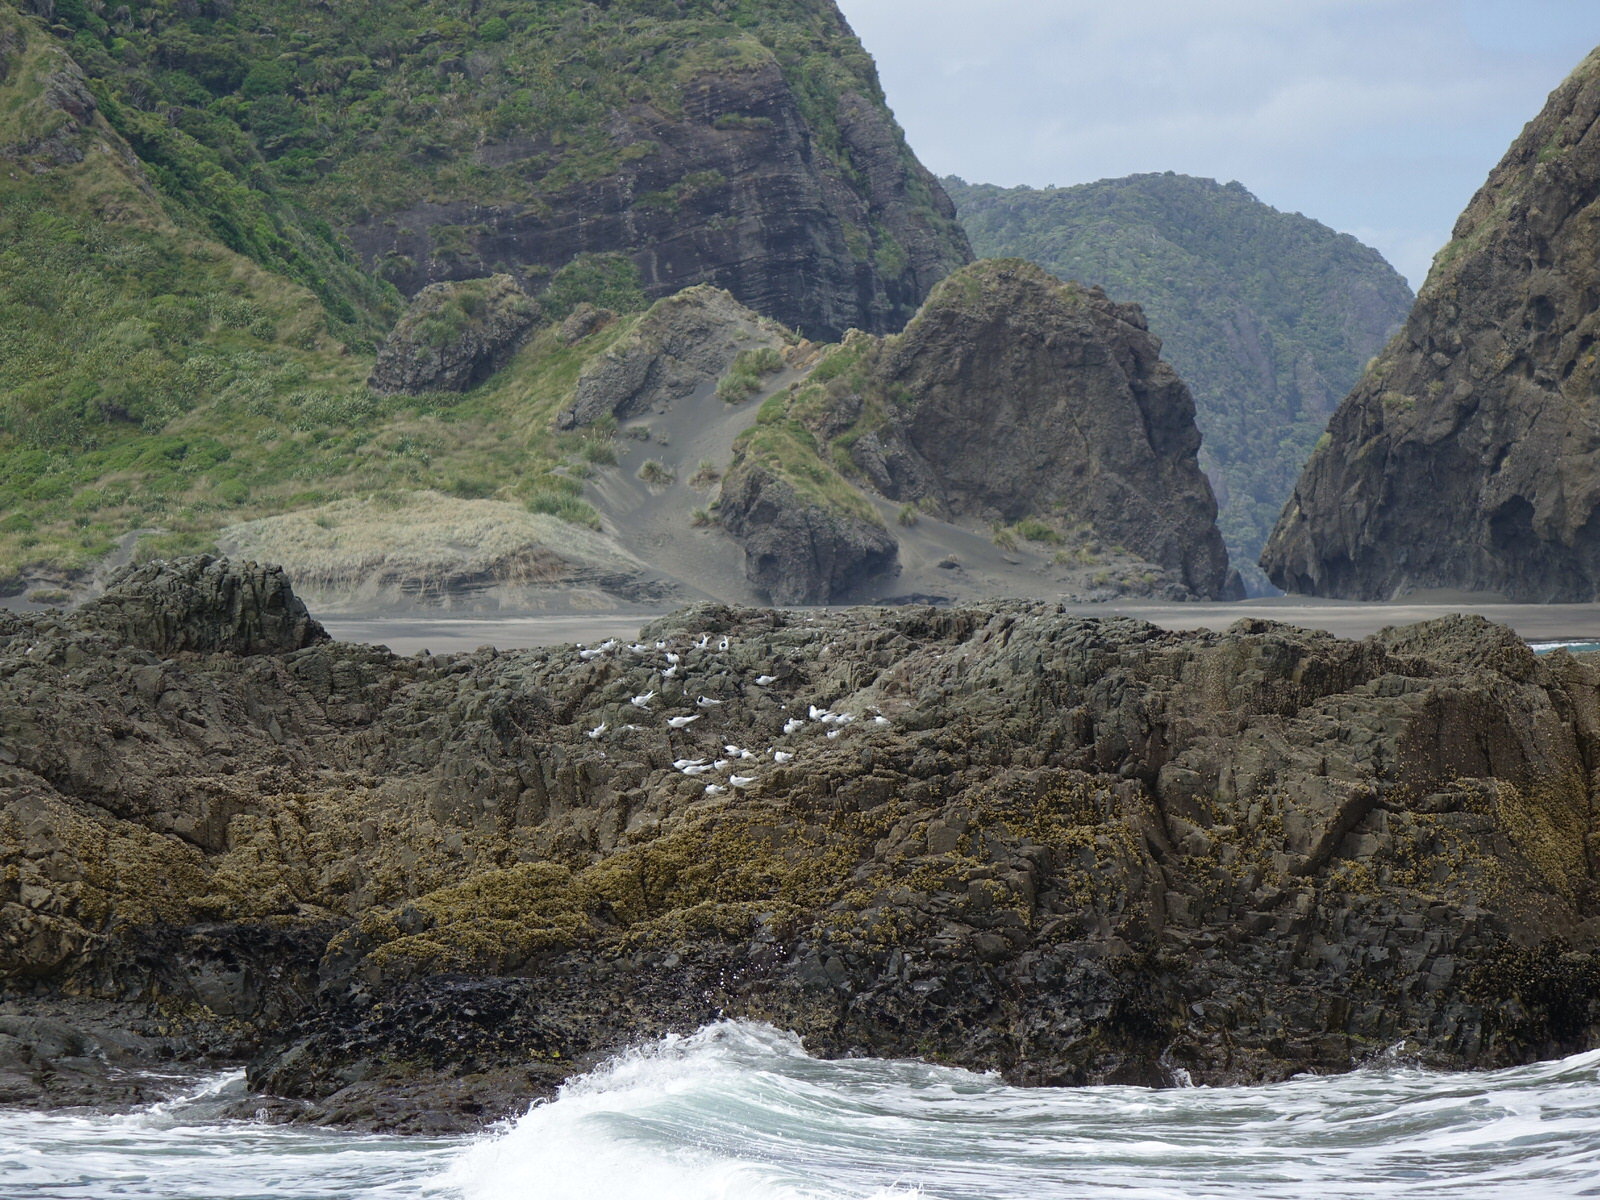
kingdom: Animalia
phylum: Chordata
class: Aves
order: Charadriiformes
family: Laridae
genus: Sterna
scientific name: Sterna striata
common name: White-fronted tern
